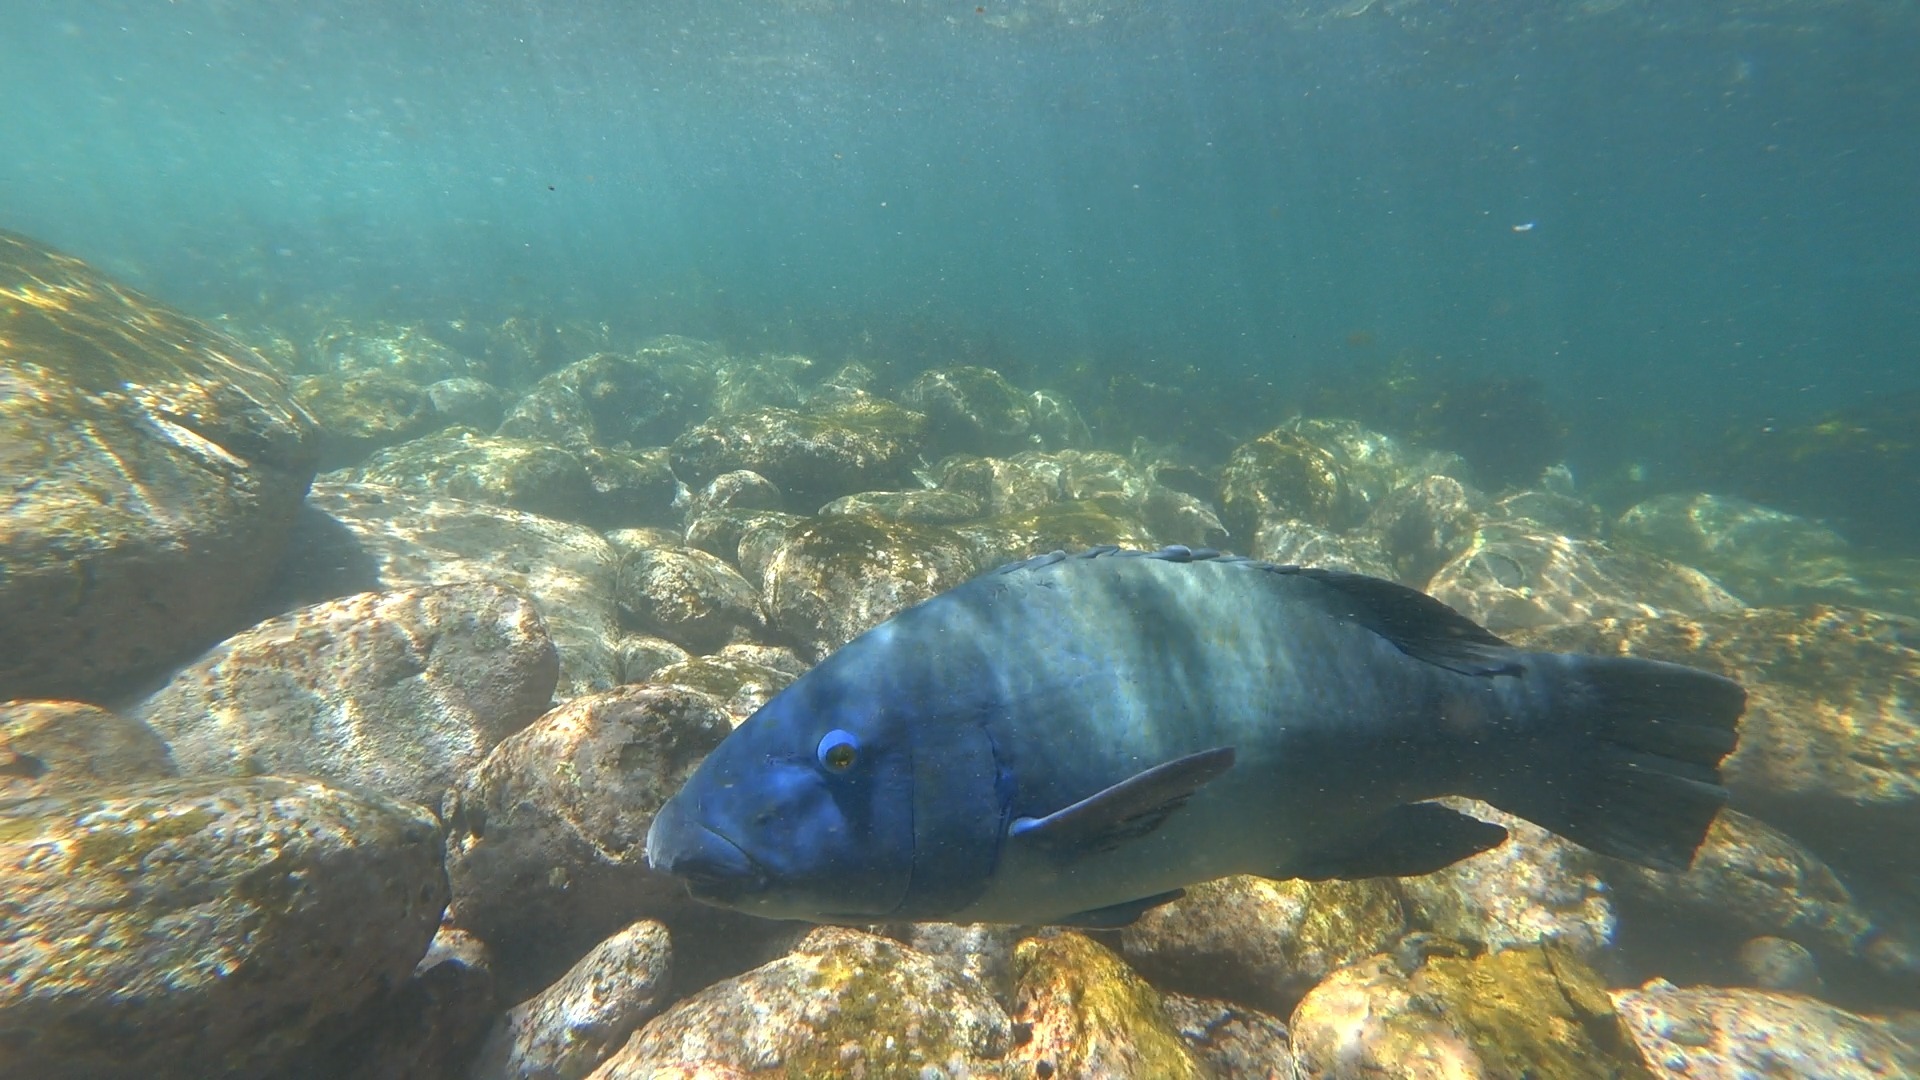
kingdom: Animalia
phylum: Chordata
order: Perciformes
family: Labridae
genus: Achoerodus
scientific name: Achoerodus viridis
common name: Brown groper
